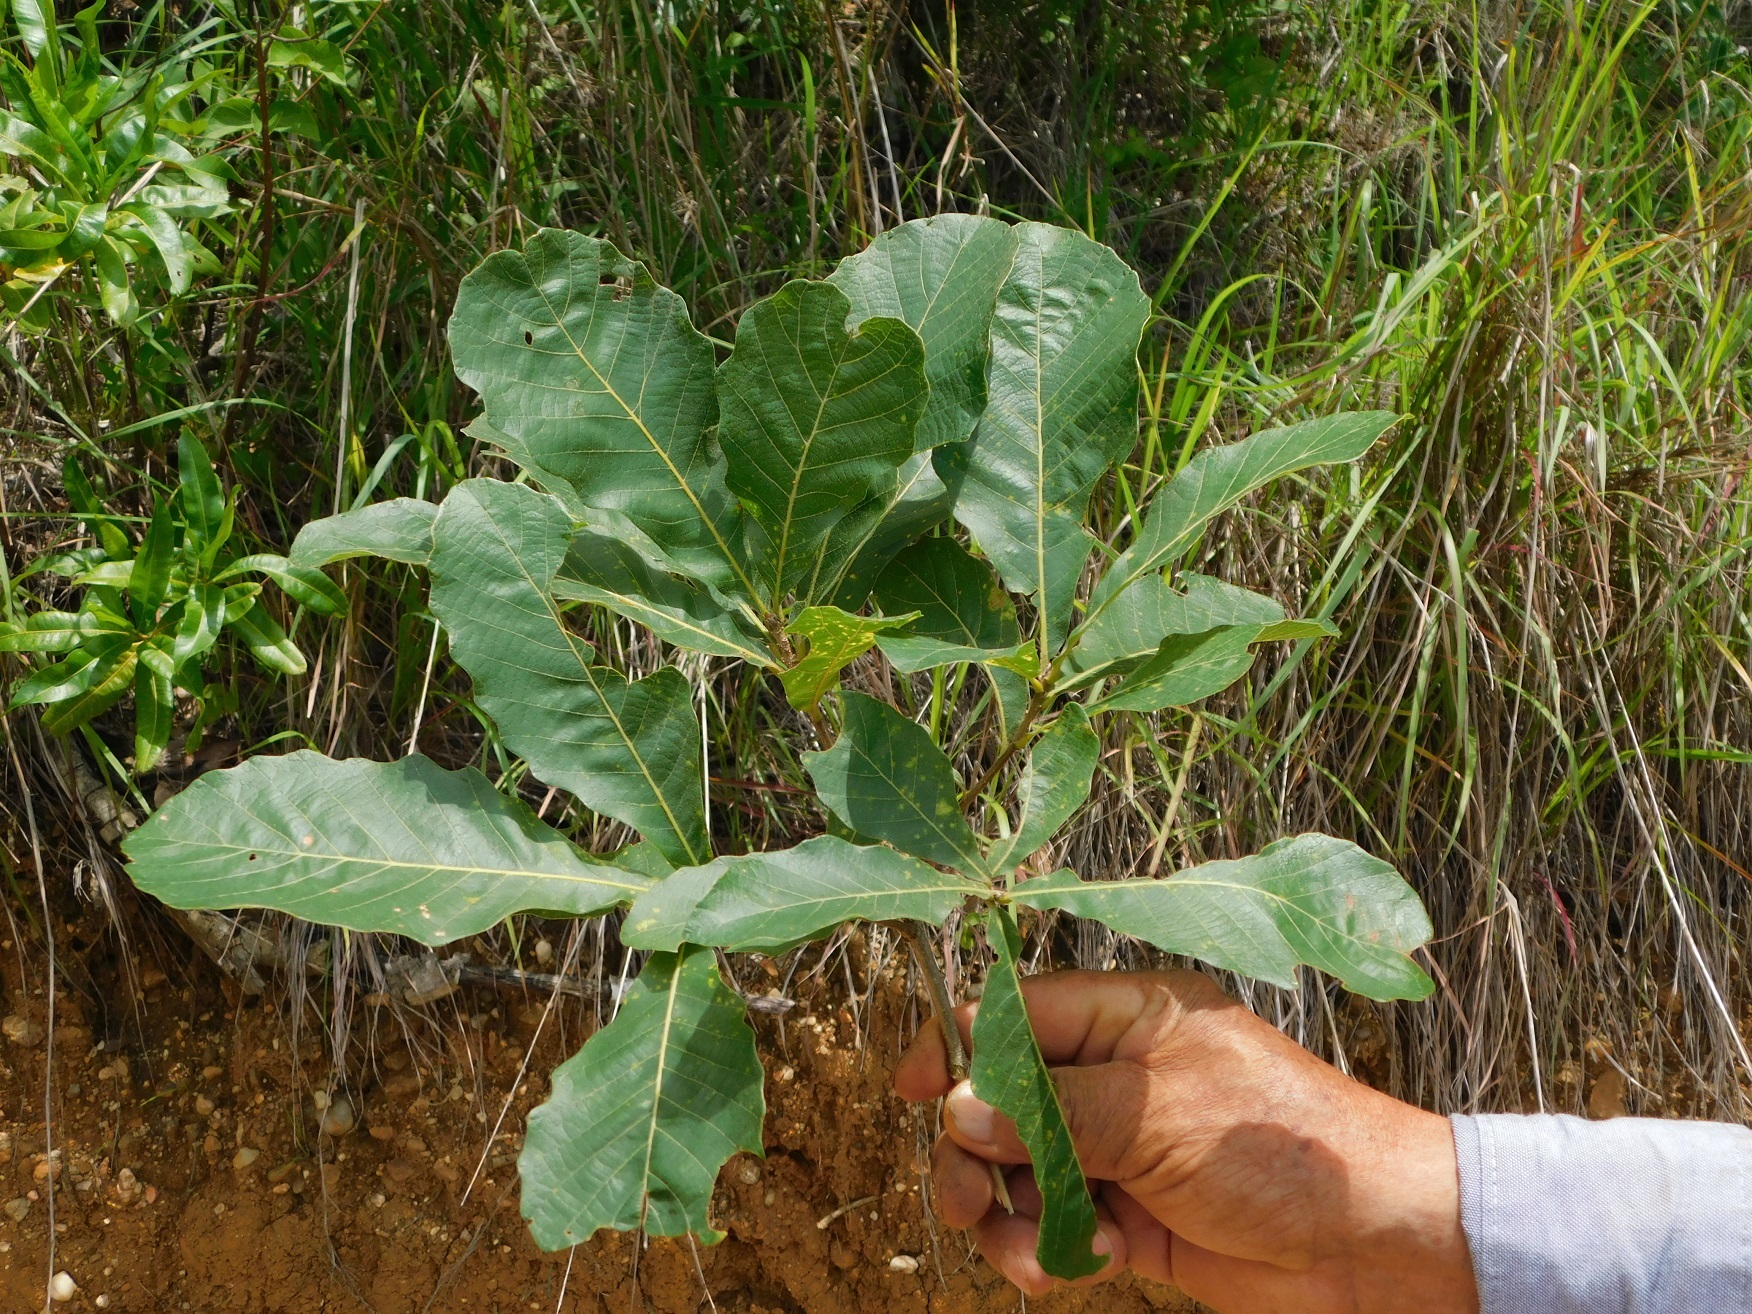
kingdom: Plantae
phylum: Tracheophyta
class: Magnoliopsida
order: Fagales
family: Fagaceae
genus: Quercus
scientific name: Quercus segoviensis
